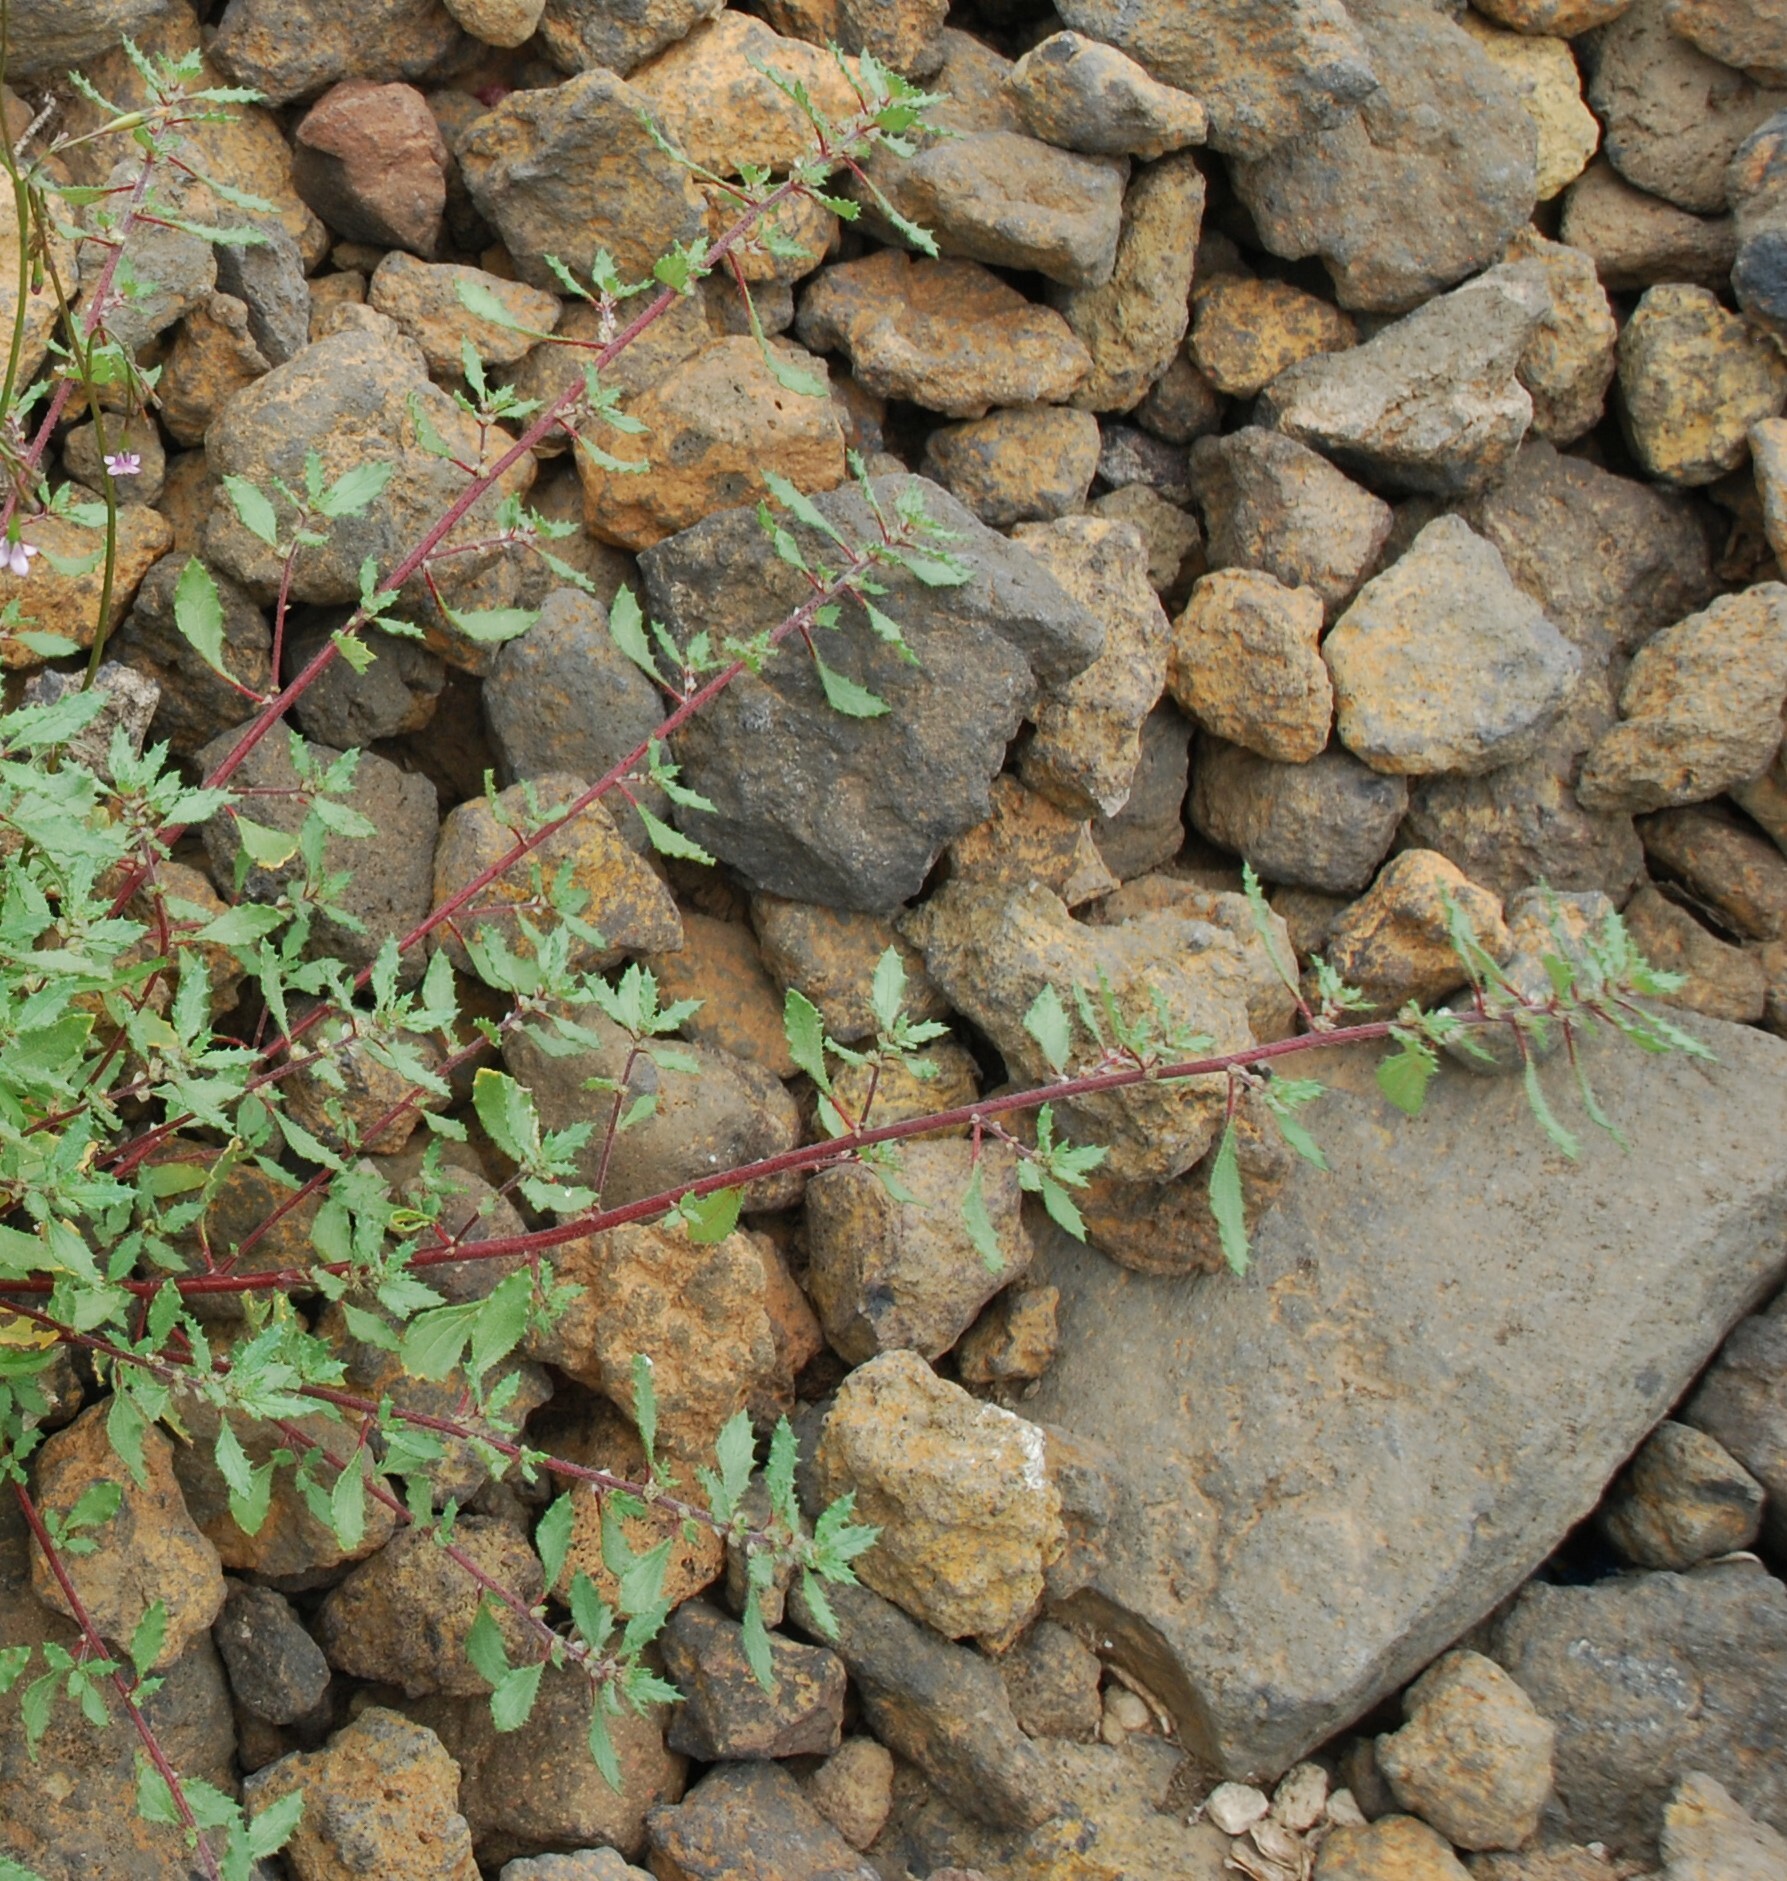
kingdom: Plantae
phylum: Tracheophyta
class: Magnoliopsida
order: Rosales
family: Urticaceae
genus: Forsskaolea
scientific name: Forsskaolea angustifolia
